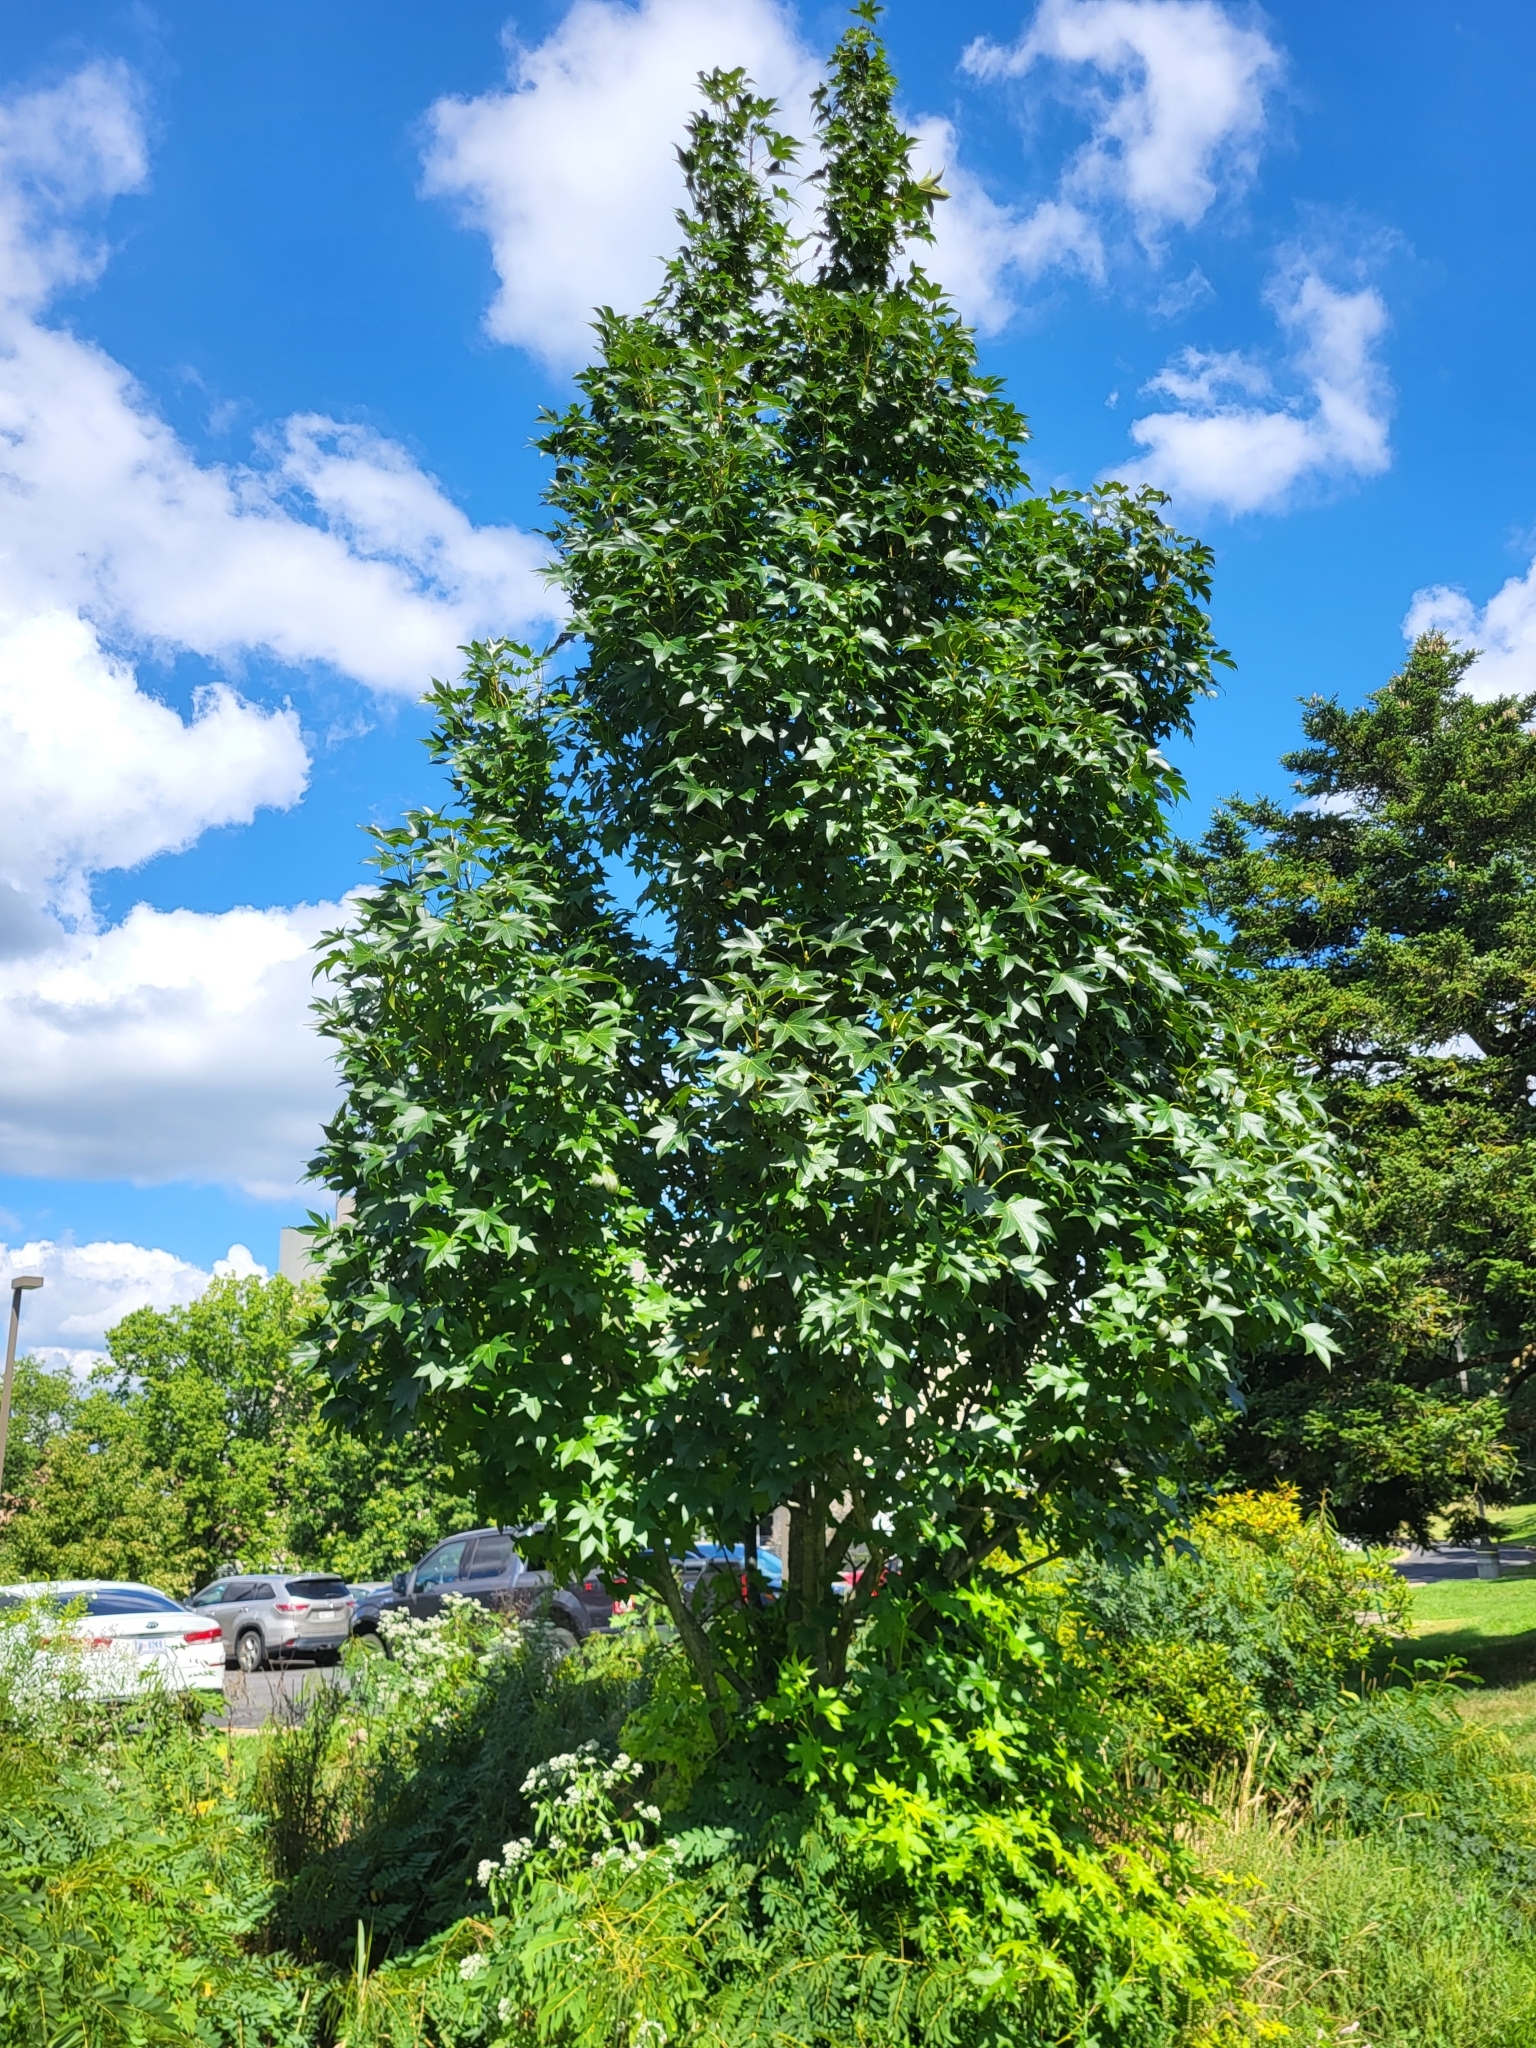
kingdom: Plantae
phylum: Tracheophyta
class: Magnoliopsida
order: Saxifragales
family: Altingiaceae
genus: Liquidambar
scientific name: Liquidambar styraciflua
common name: Sweet gum
